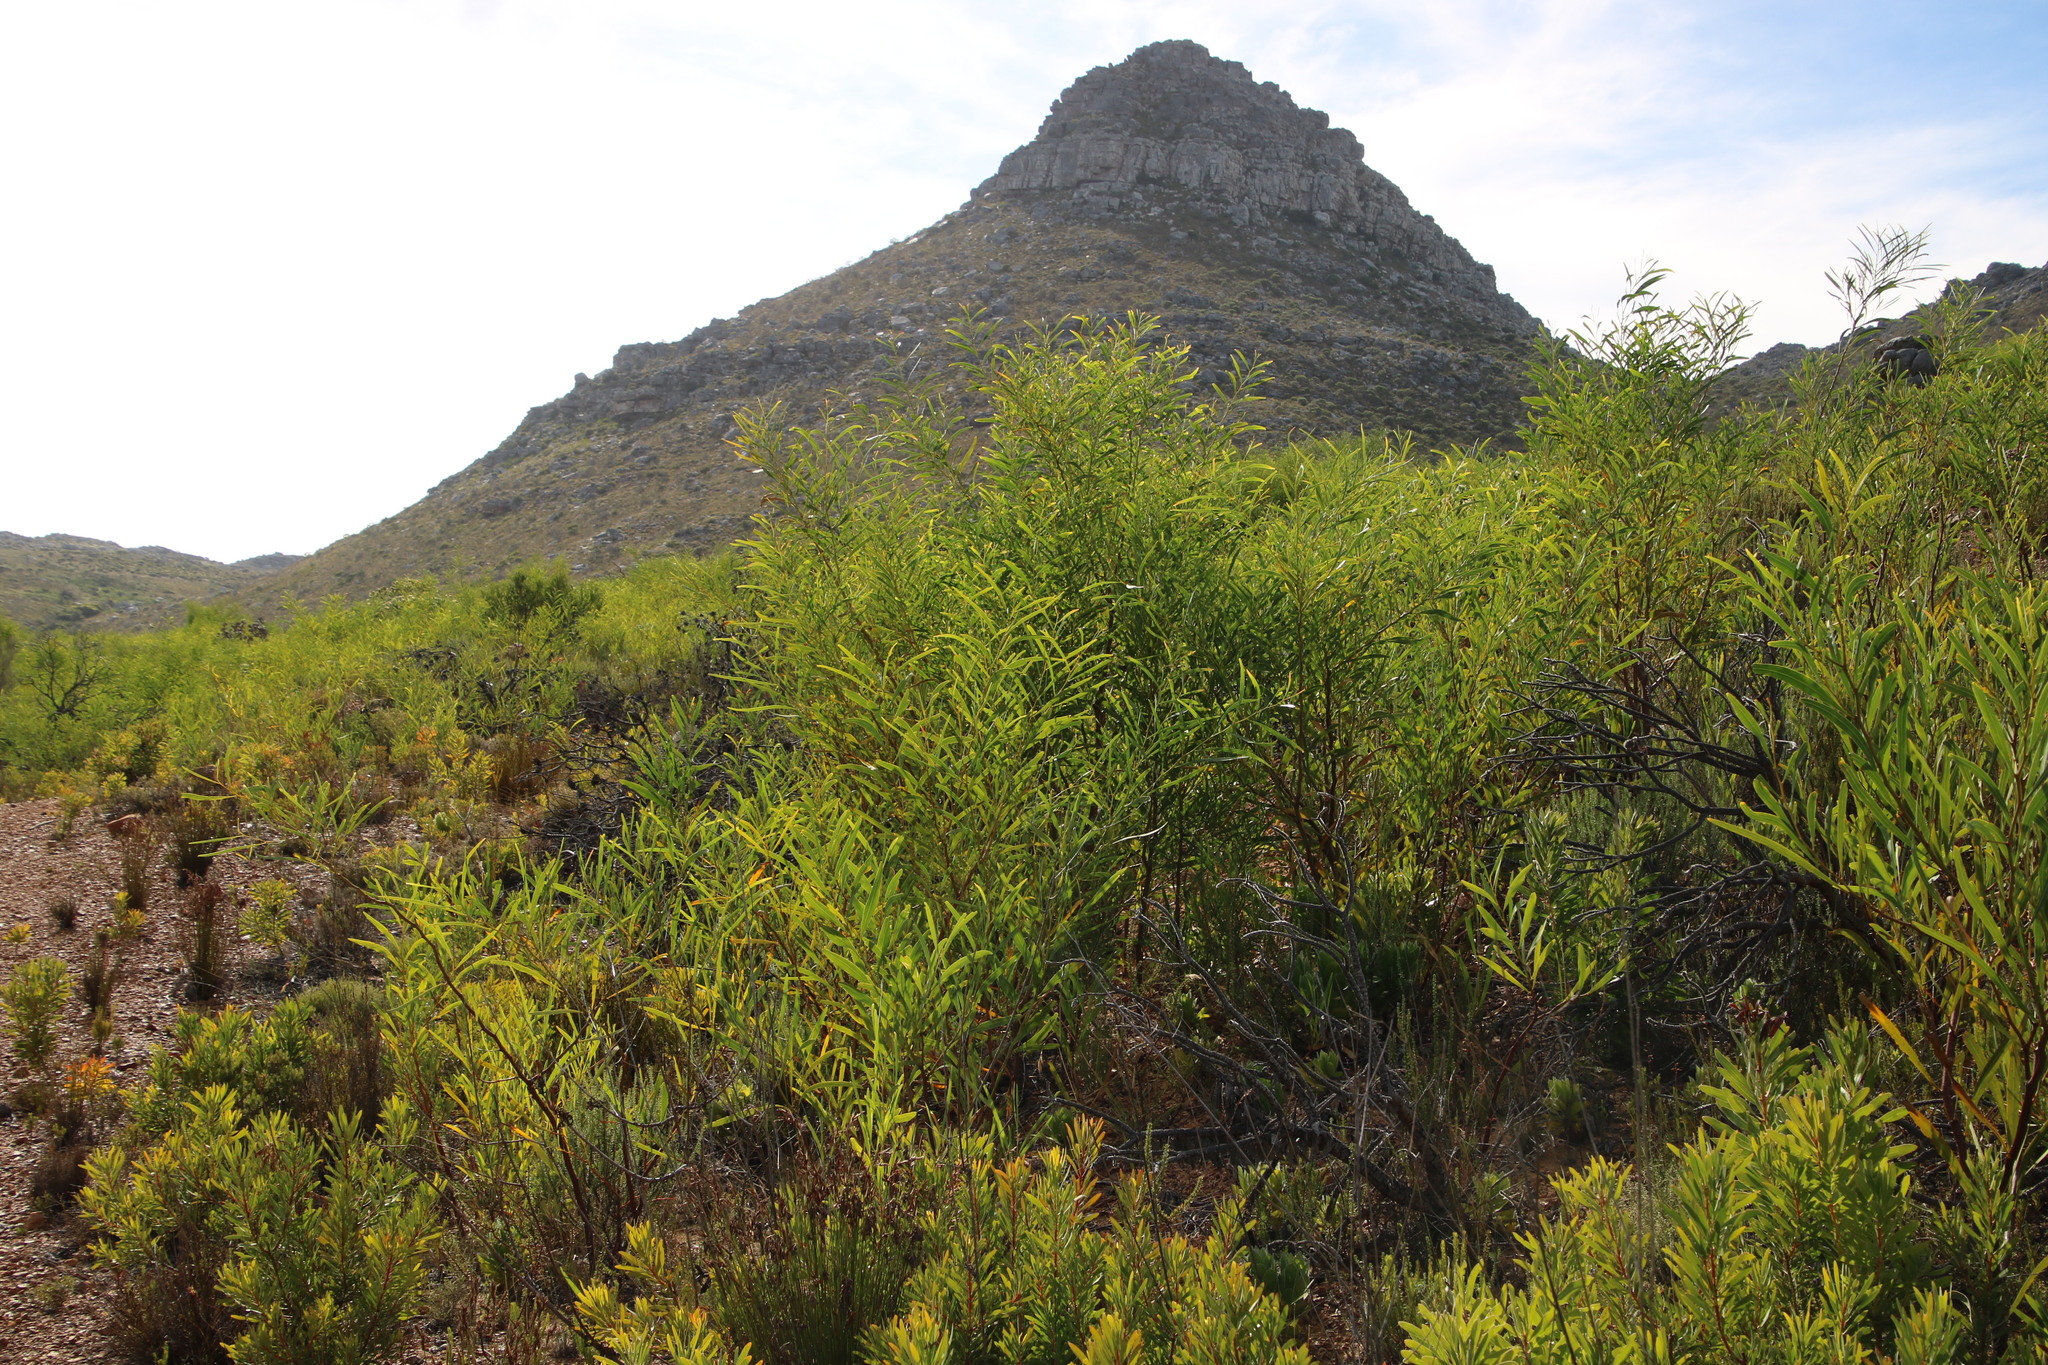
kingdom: Plantae
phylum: Tracheophyta
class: Magnoliopsida
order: Fabales
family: Fabaceae
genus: Acacia
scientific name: Acacia saligna
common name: Orange wattle
